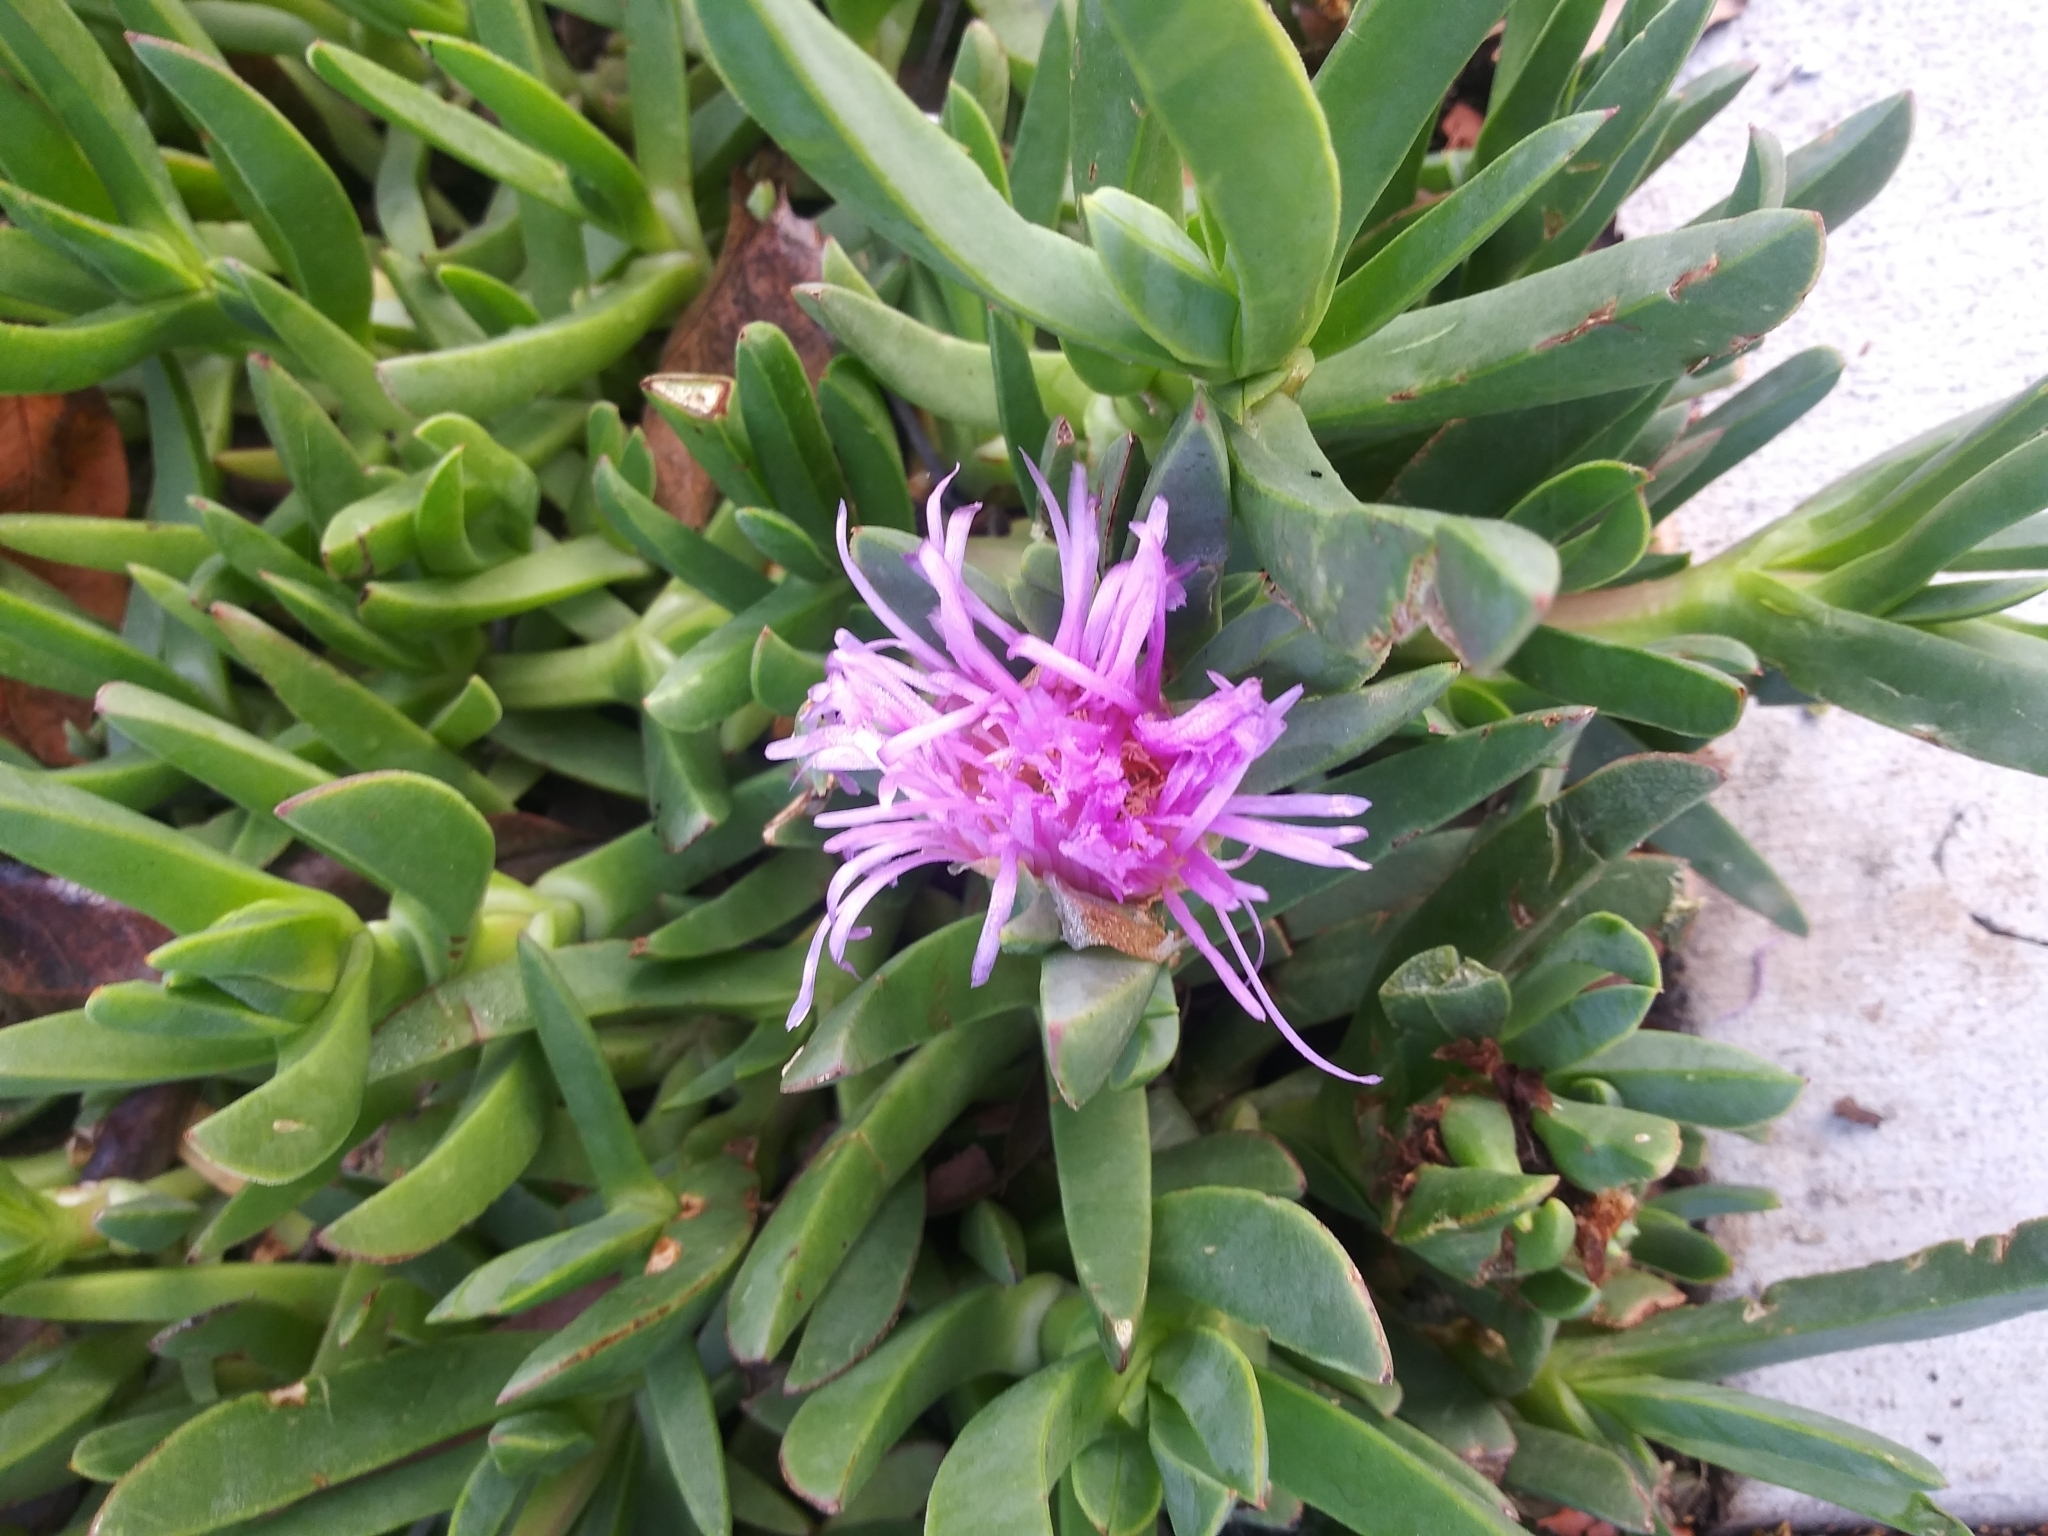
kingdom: Plantae
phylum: Tracheophyta
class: Magnoliopsida
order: Caryophyllales
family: Aizoaceae
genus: Carpobrotus
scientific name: Carpobrotus chilensis
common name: Sea fig
